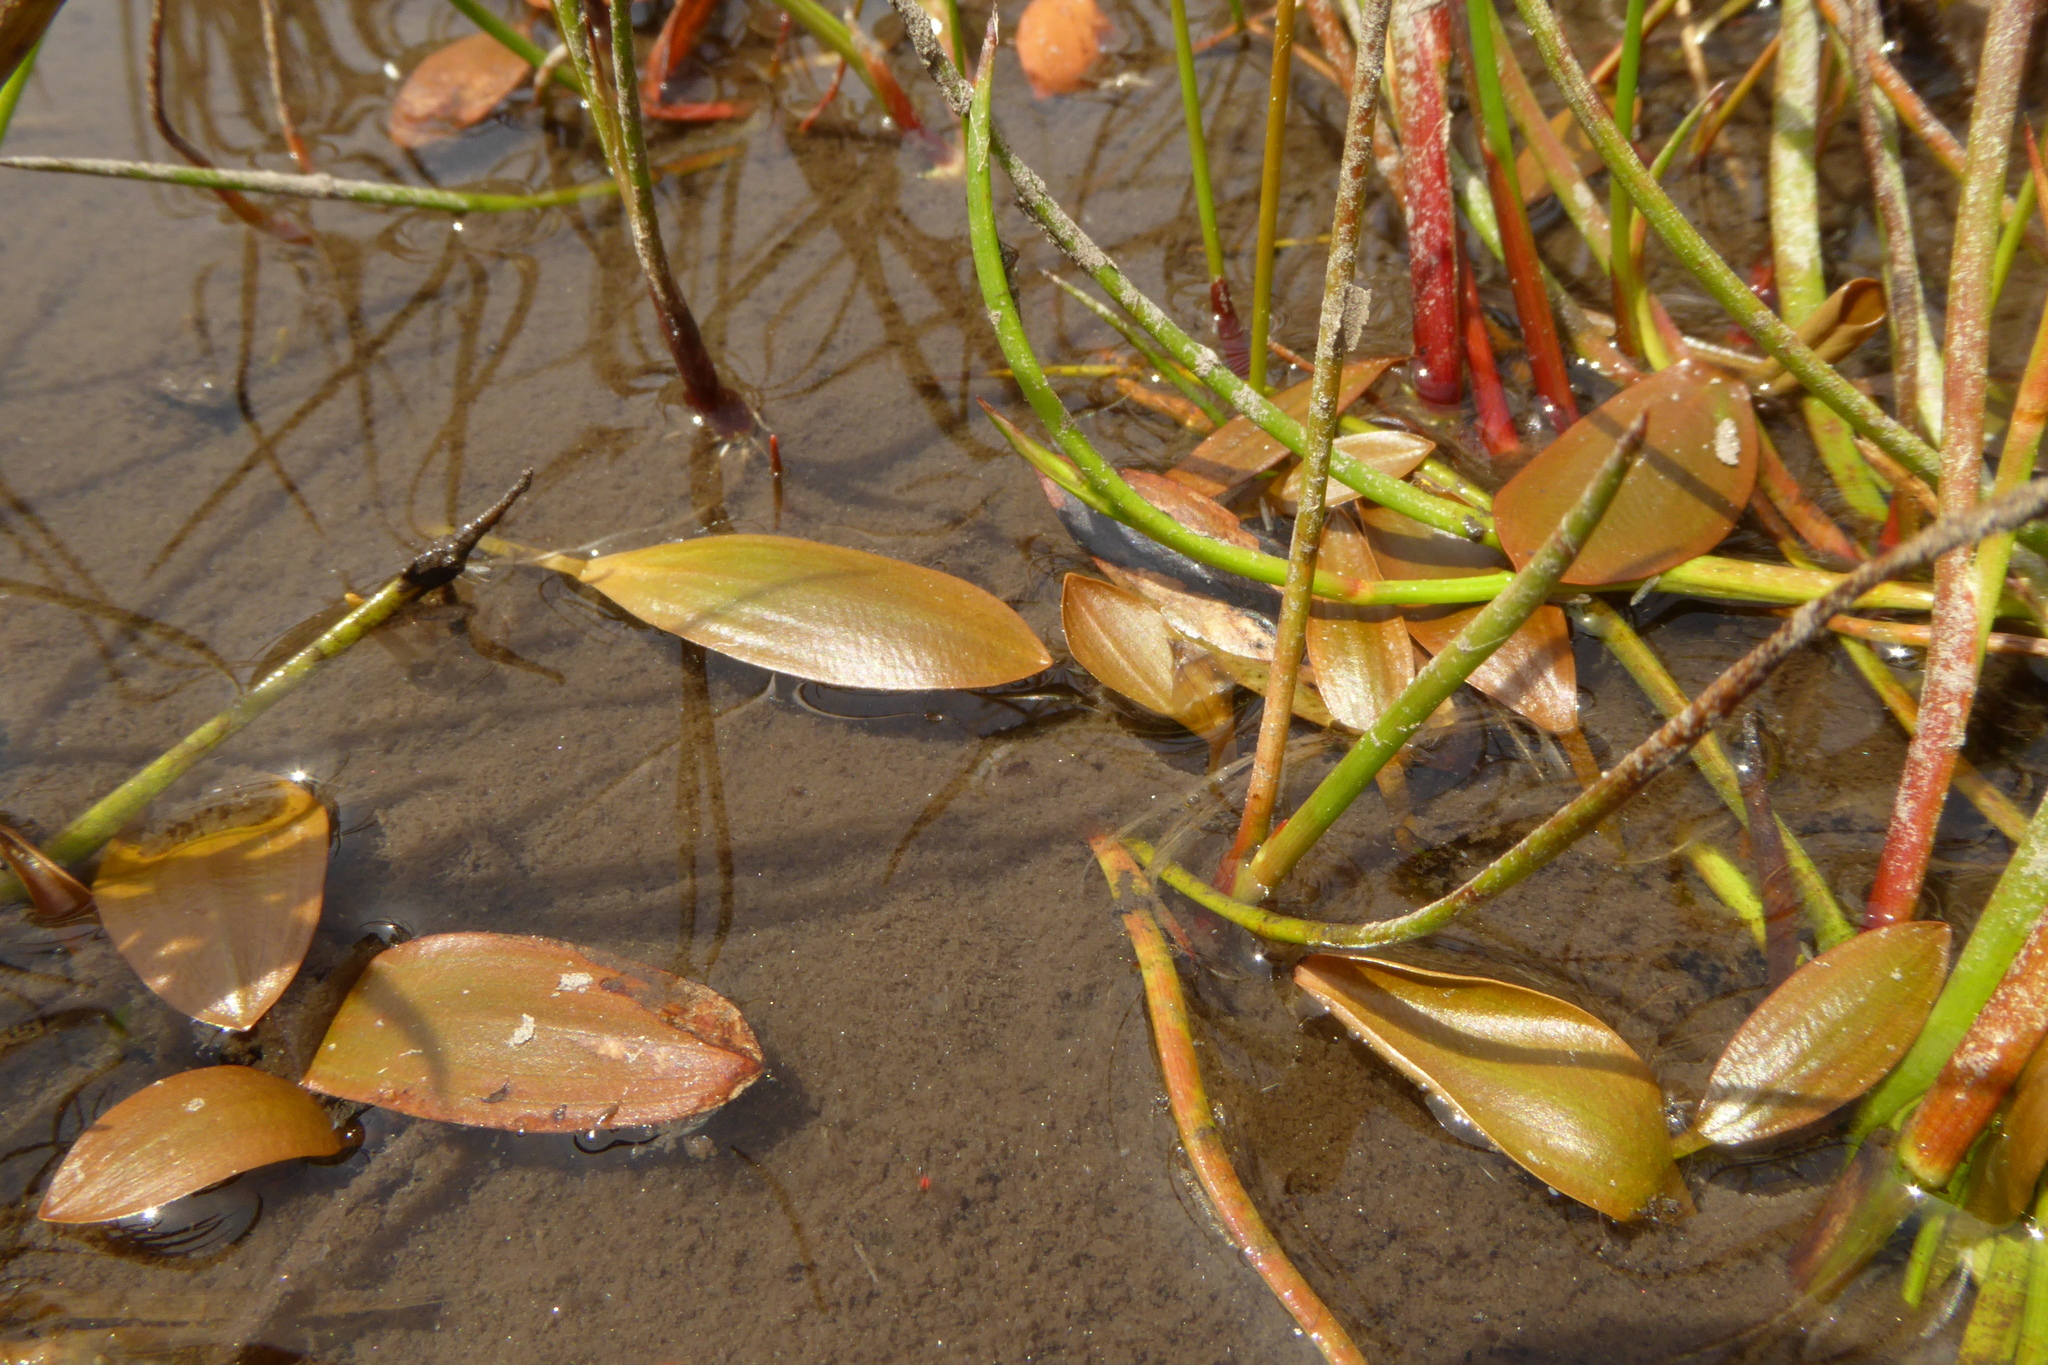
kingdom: Plantae
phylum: Tracheophyta
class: Liliopsida
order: Alismatales
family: Potamogetonaceae
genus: Potamogeton
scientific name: Potamogeton cheesemanii
